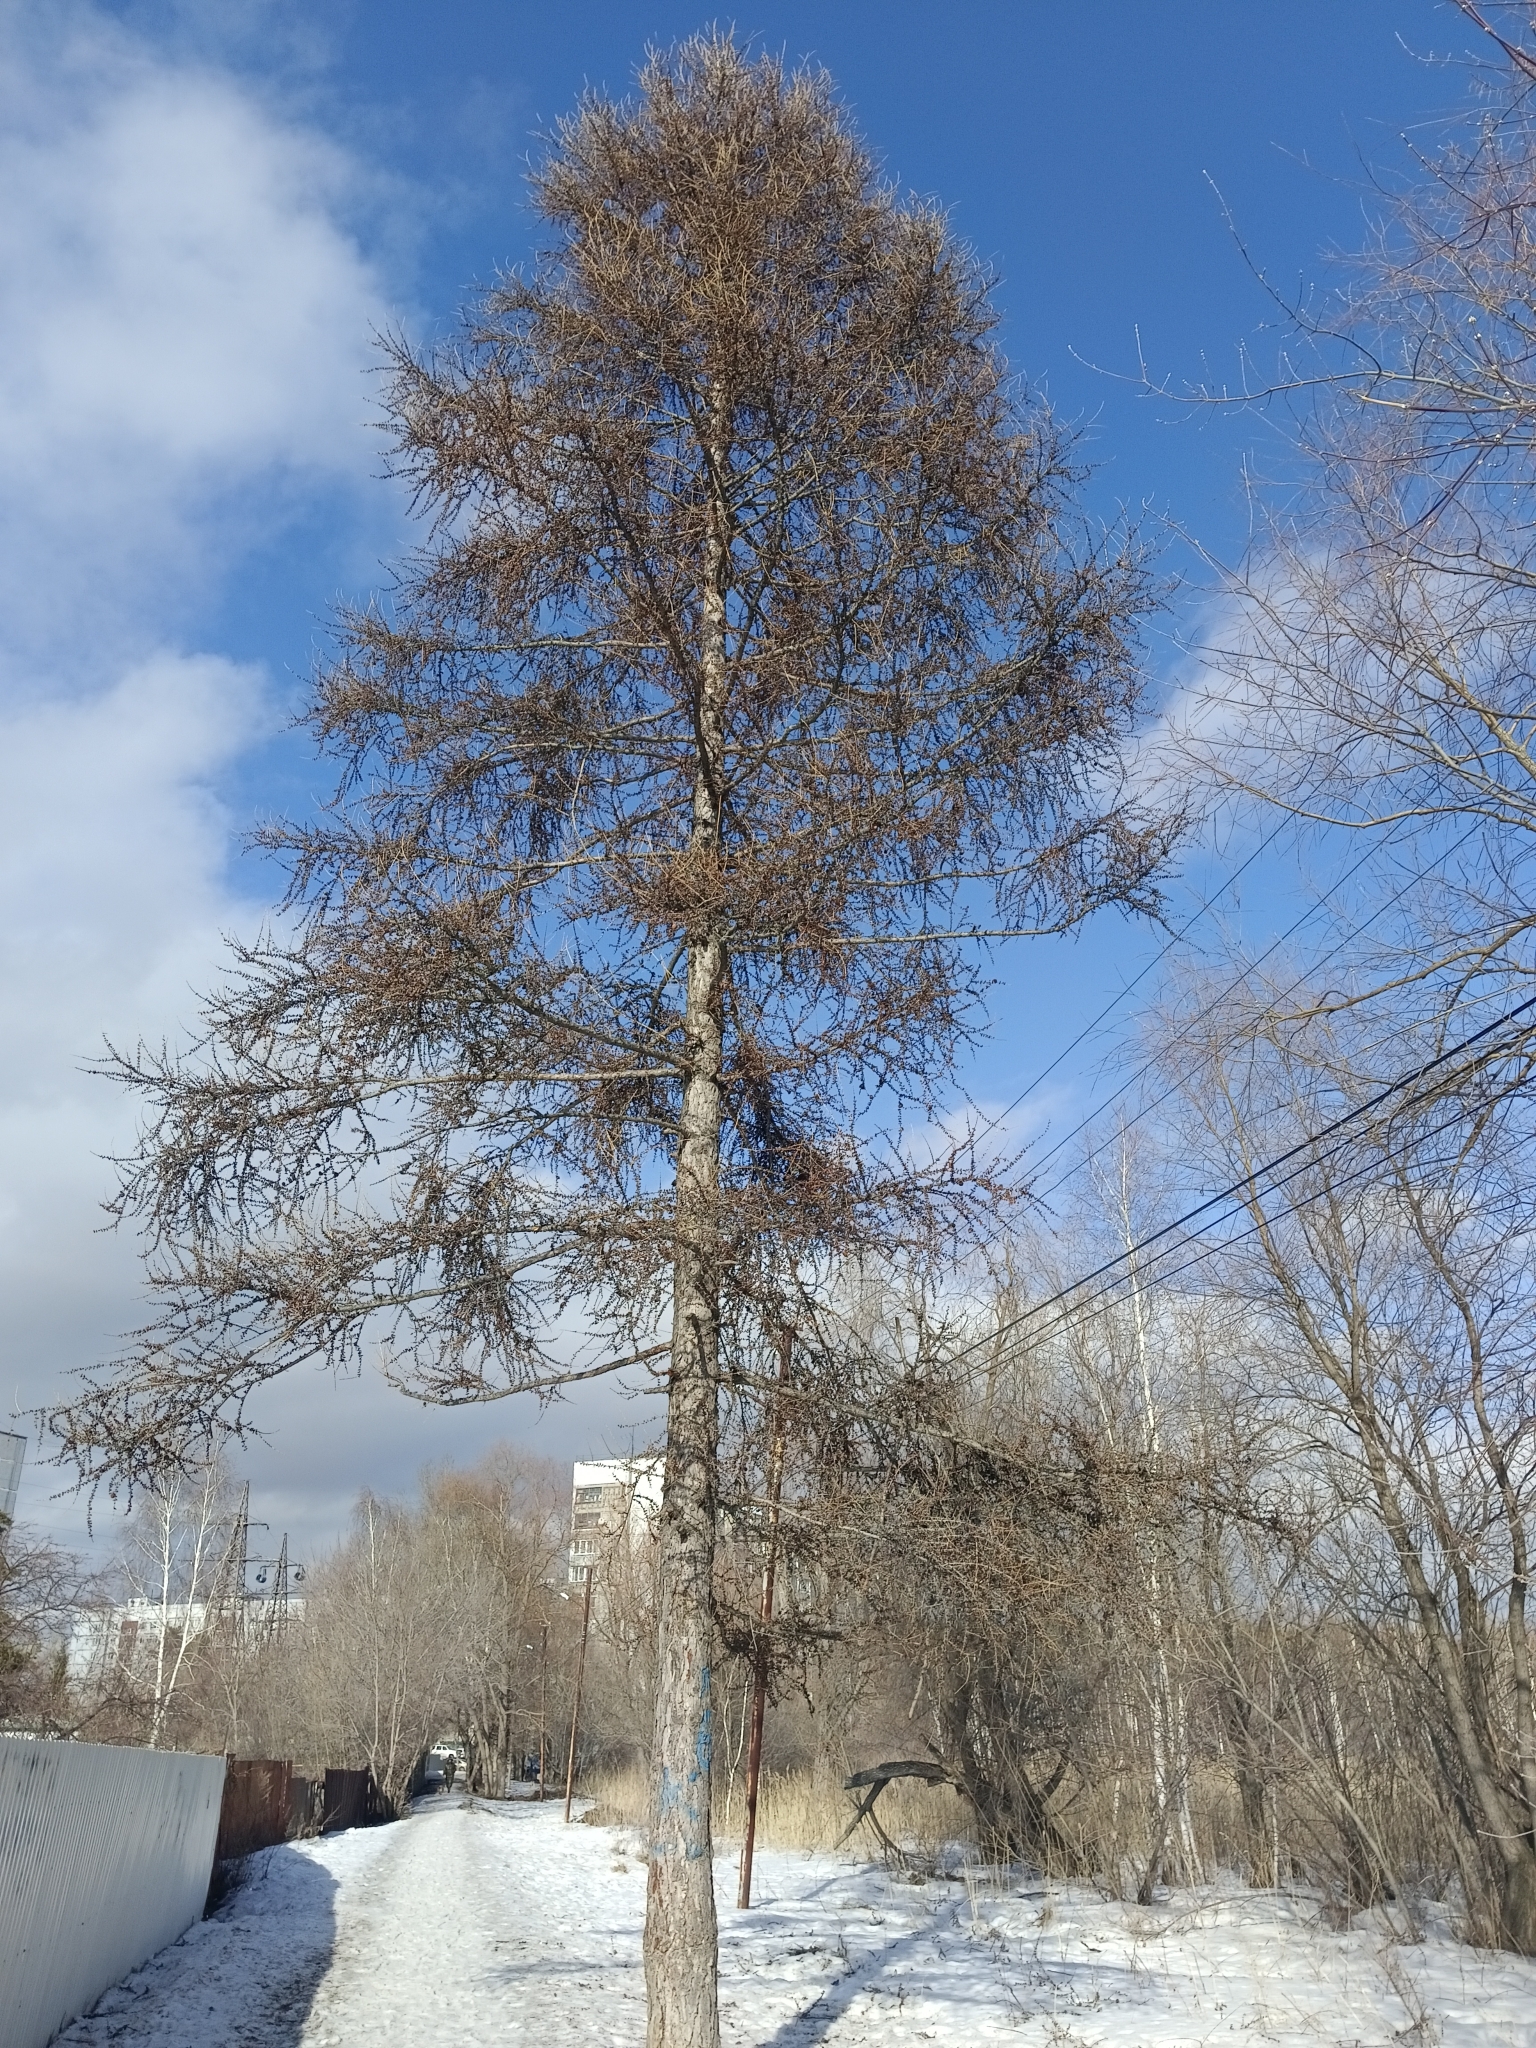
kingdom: Plantae
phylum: Tracheophyta
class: Pinopsida
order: Pinales
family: Pinaceae
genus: Larix
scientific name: Larix sibirica
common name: Siberian larch
